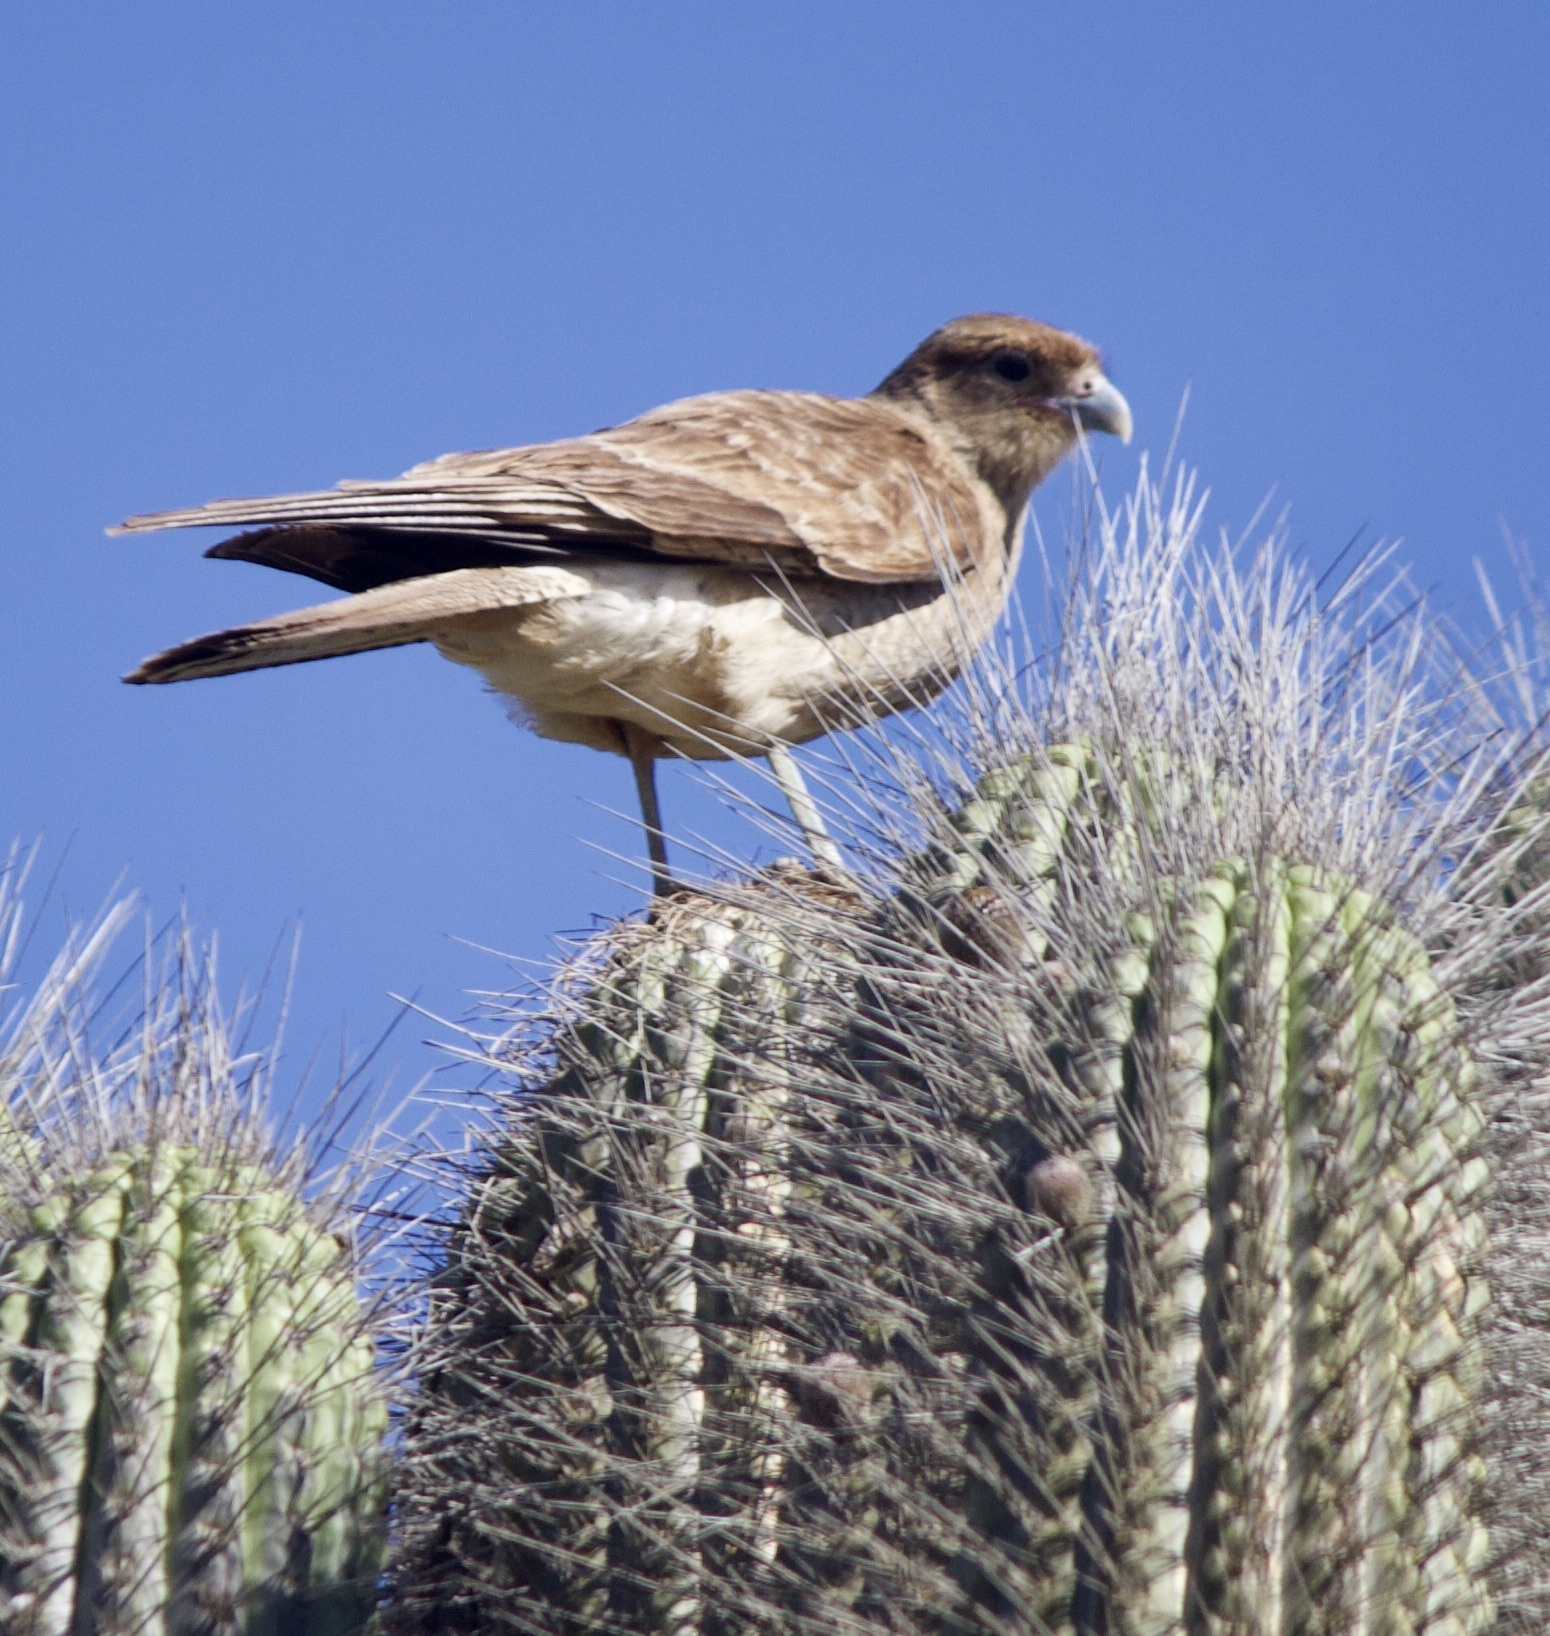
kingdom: Animalia
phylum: Chordata
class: Aves
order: Falconiformes
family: Falconidae
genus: Daptrius
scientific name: Daptrius
